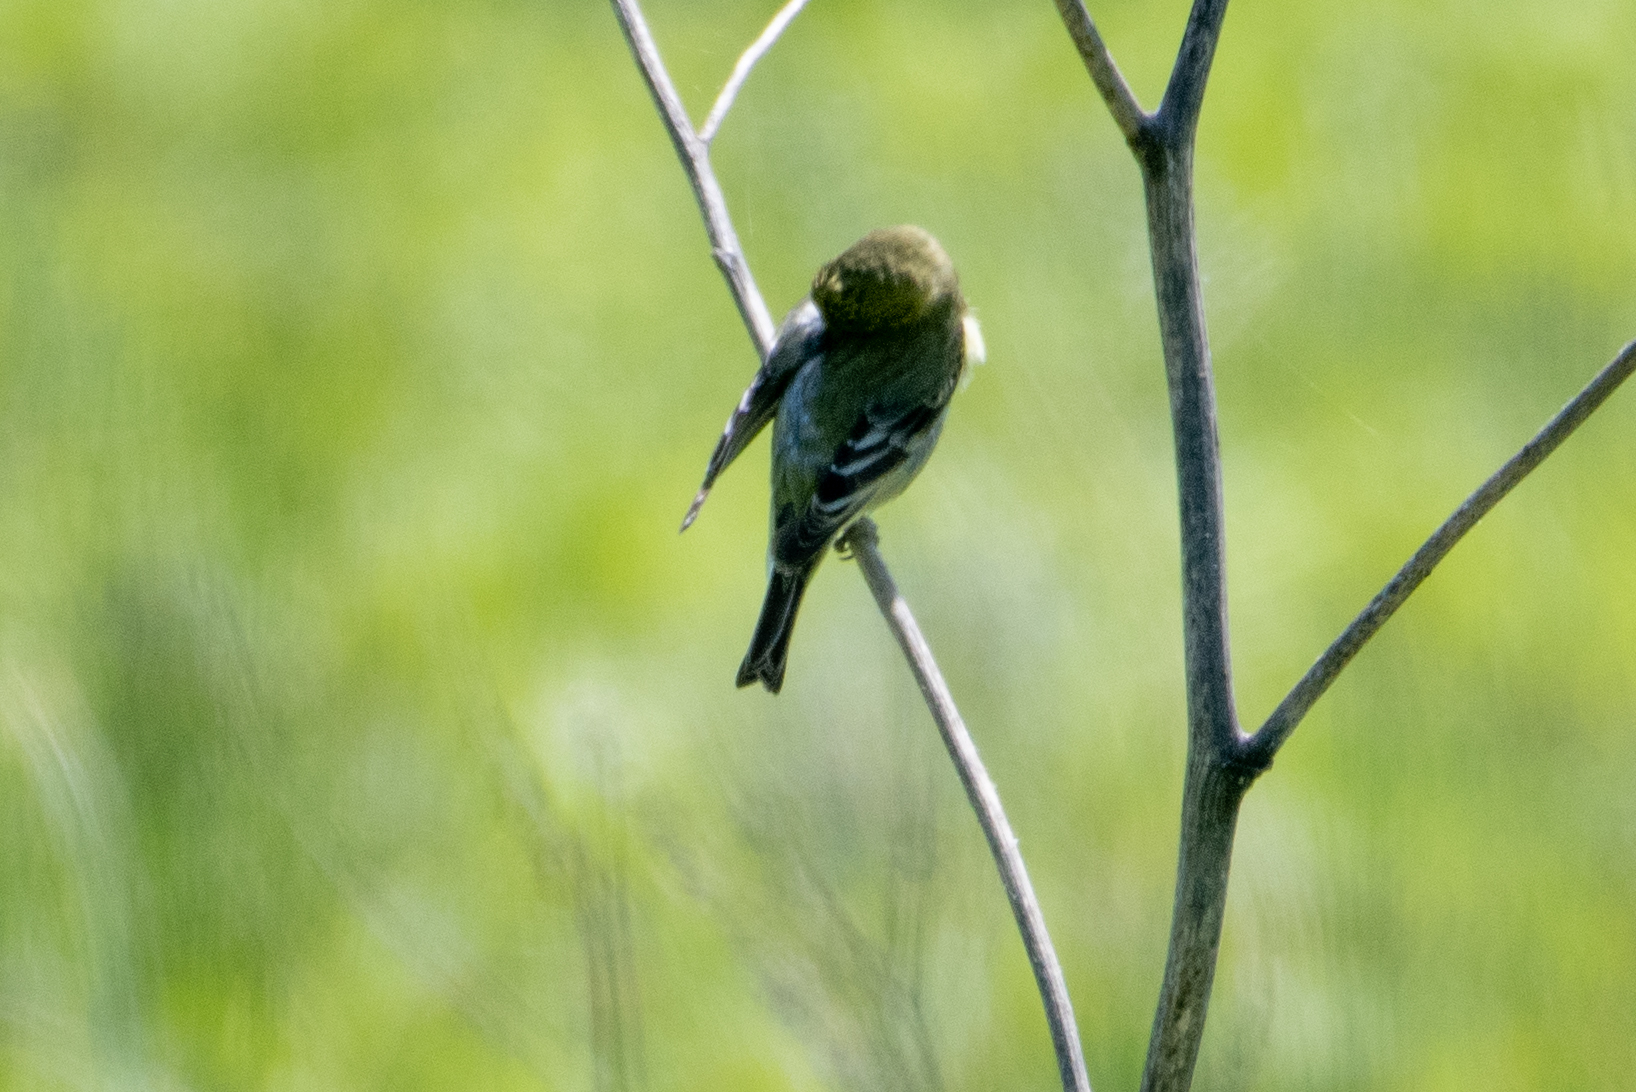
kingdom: Animalia
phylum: Chordata
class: Aves
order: Passeriformes
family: Fringillidae
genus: Spinus
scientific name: Spinus psaltria
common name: Lesser goldfinch
